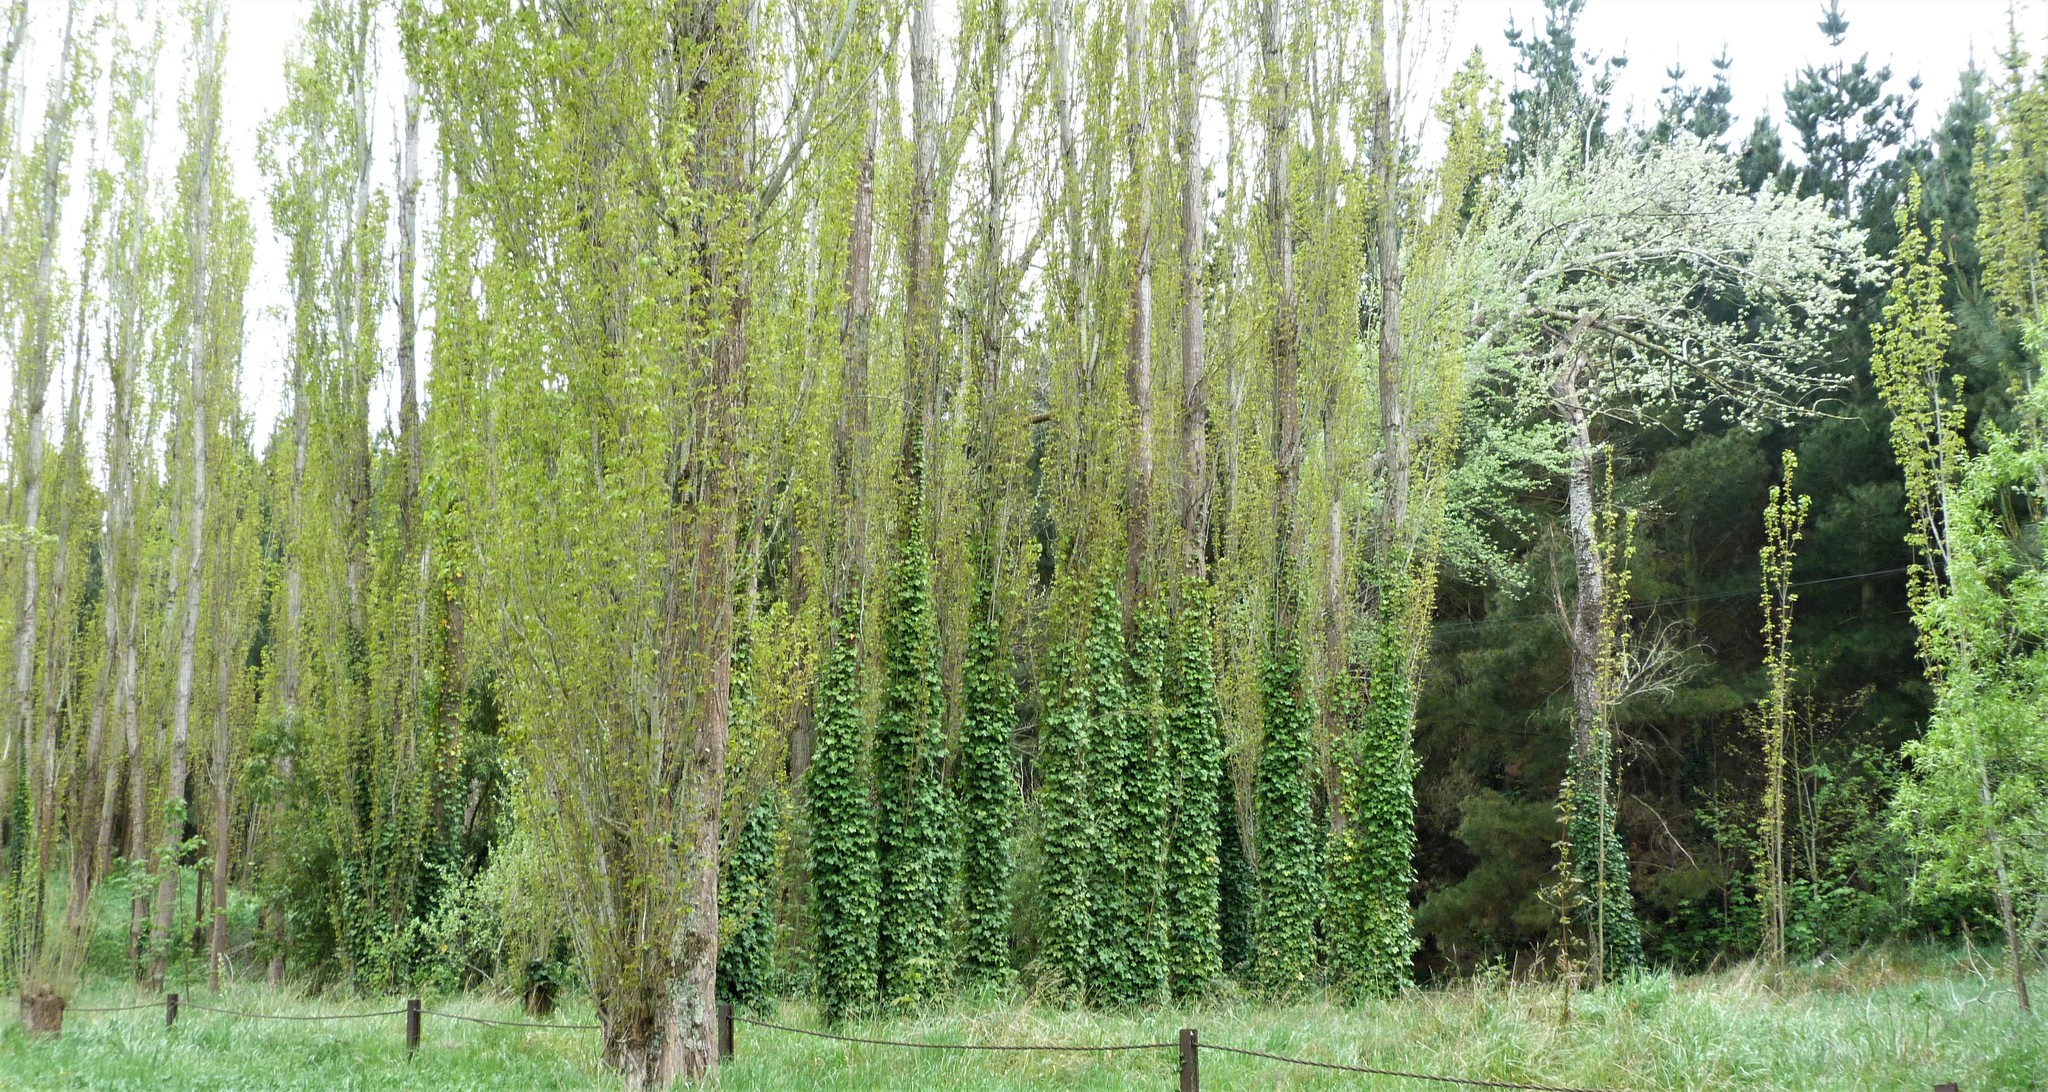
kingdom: Plantae
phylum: Tracheophyta
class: Magnoliopsida
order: Apiales
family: Araliaceae
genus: Hedera
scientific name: Hedera helix
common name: Ivy
